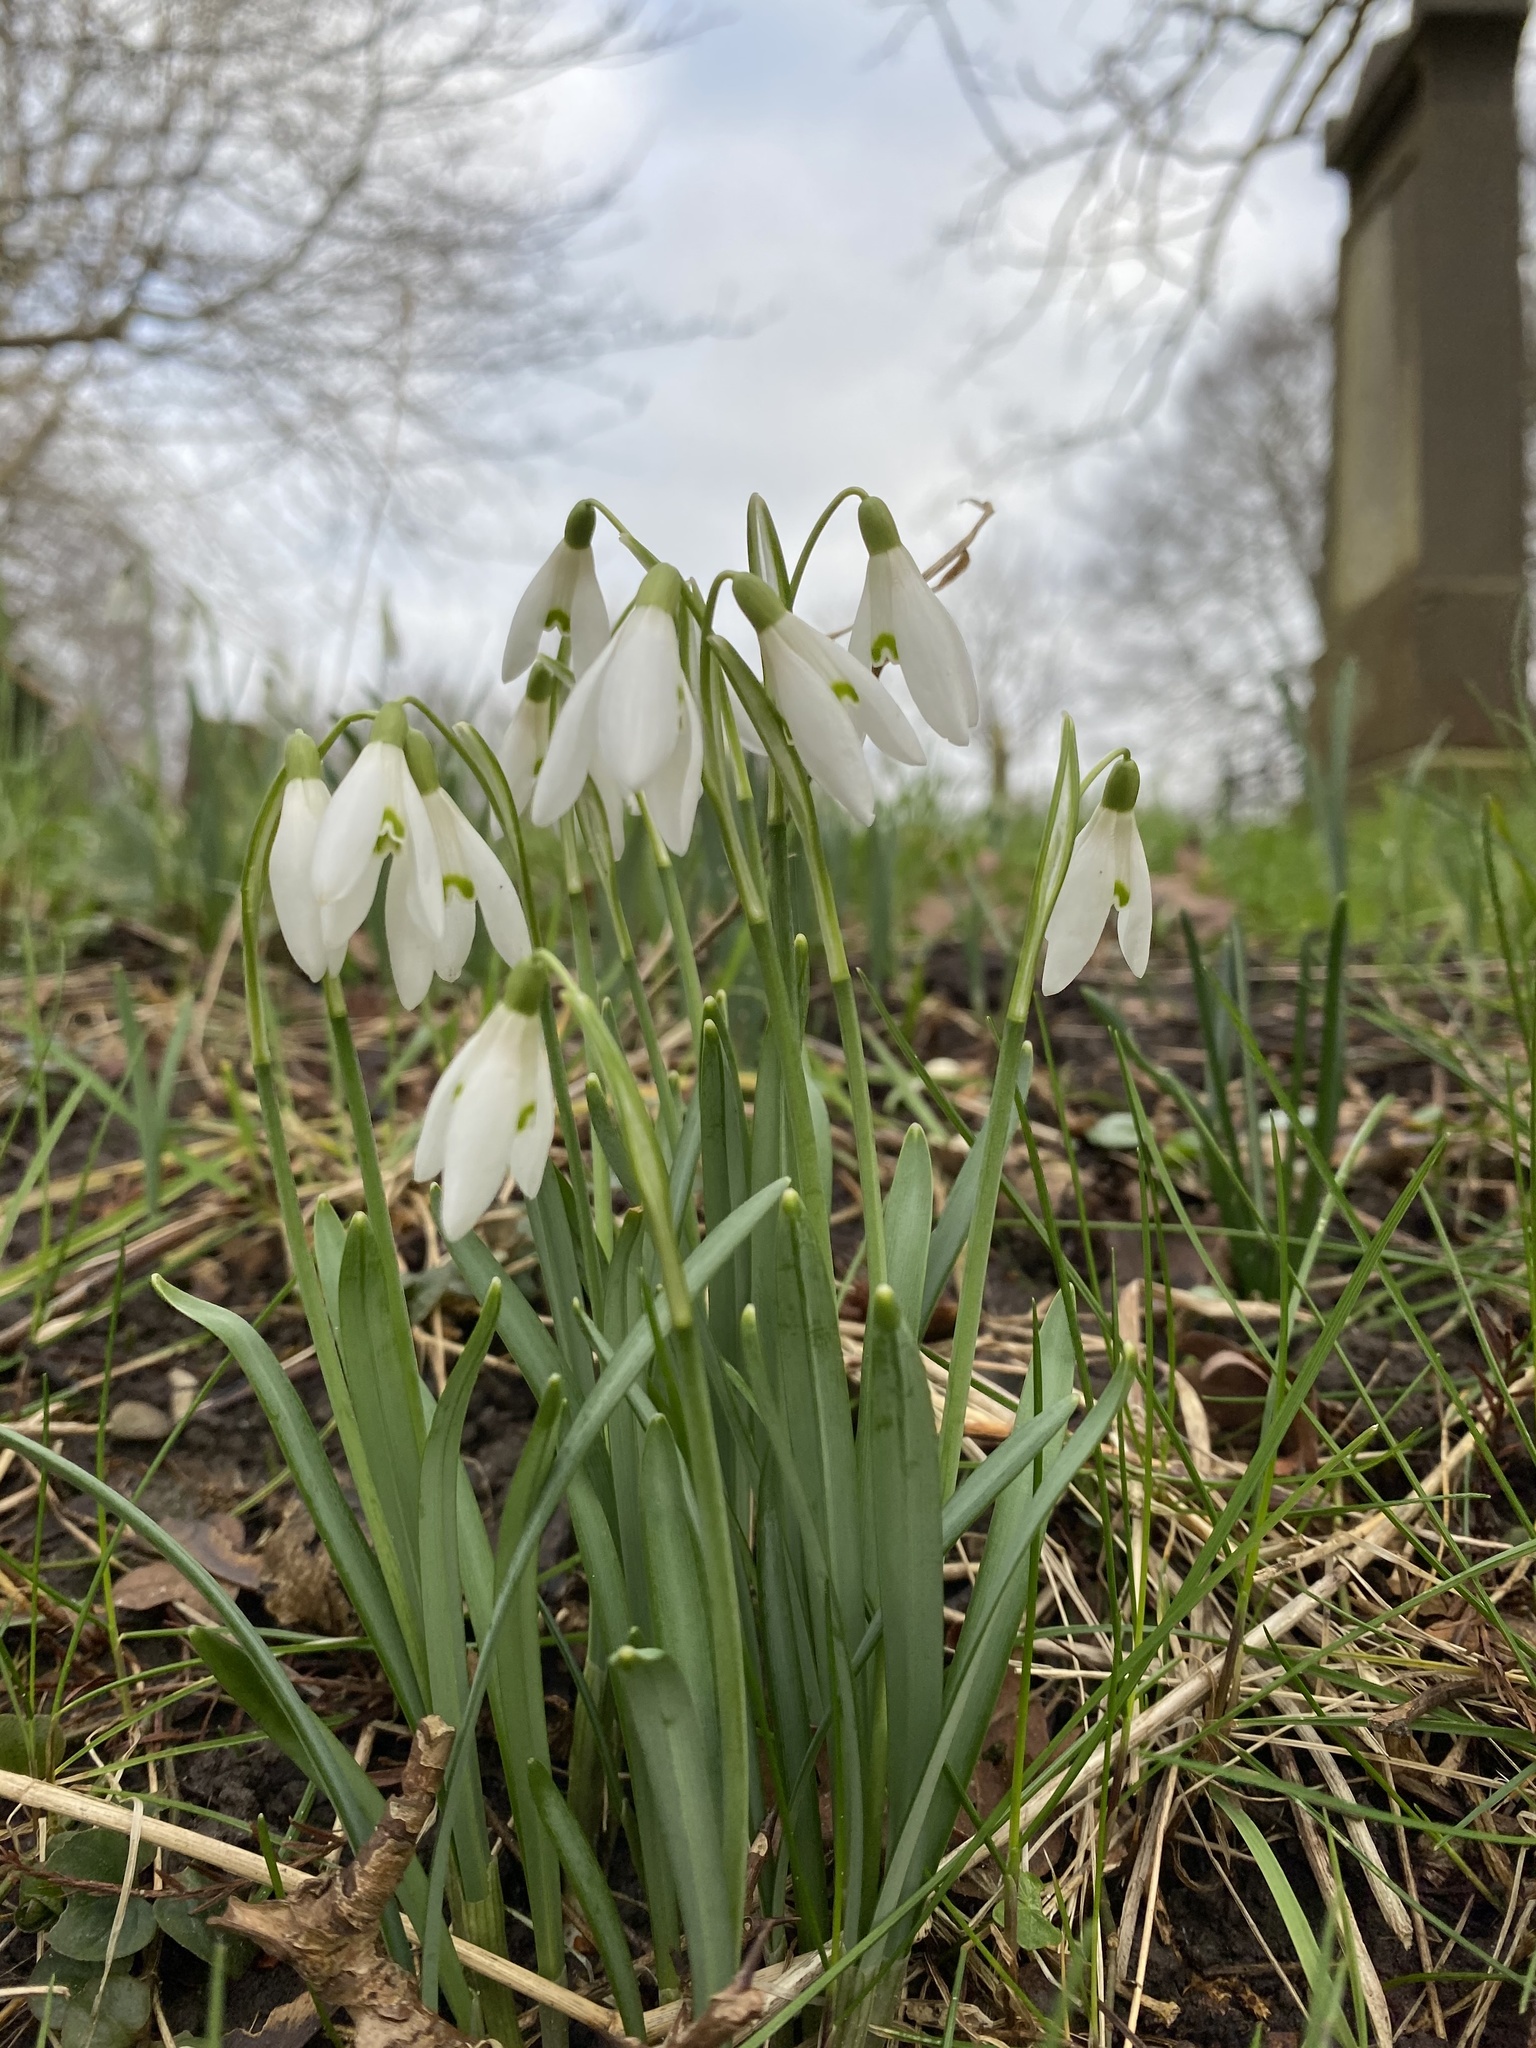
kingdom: Plantae
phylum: Tracheophyta
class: Liliopsida
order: Asparagales
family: Amaryllidaceae
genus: Galanthus
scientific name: Galanthus nivalis
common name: Snowdrop
